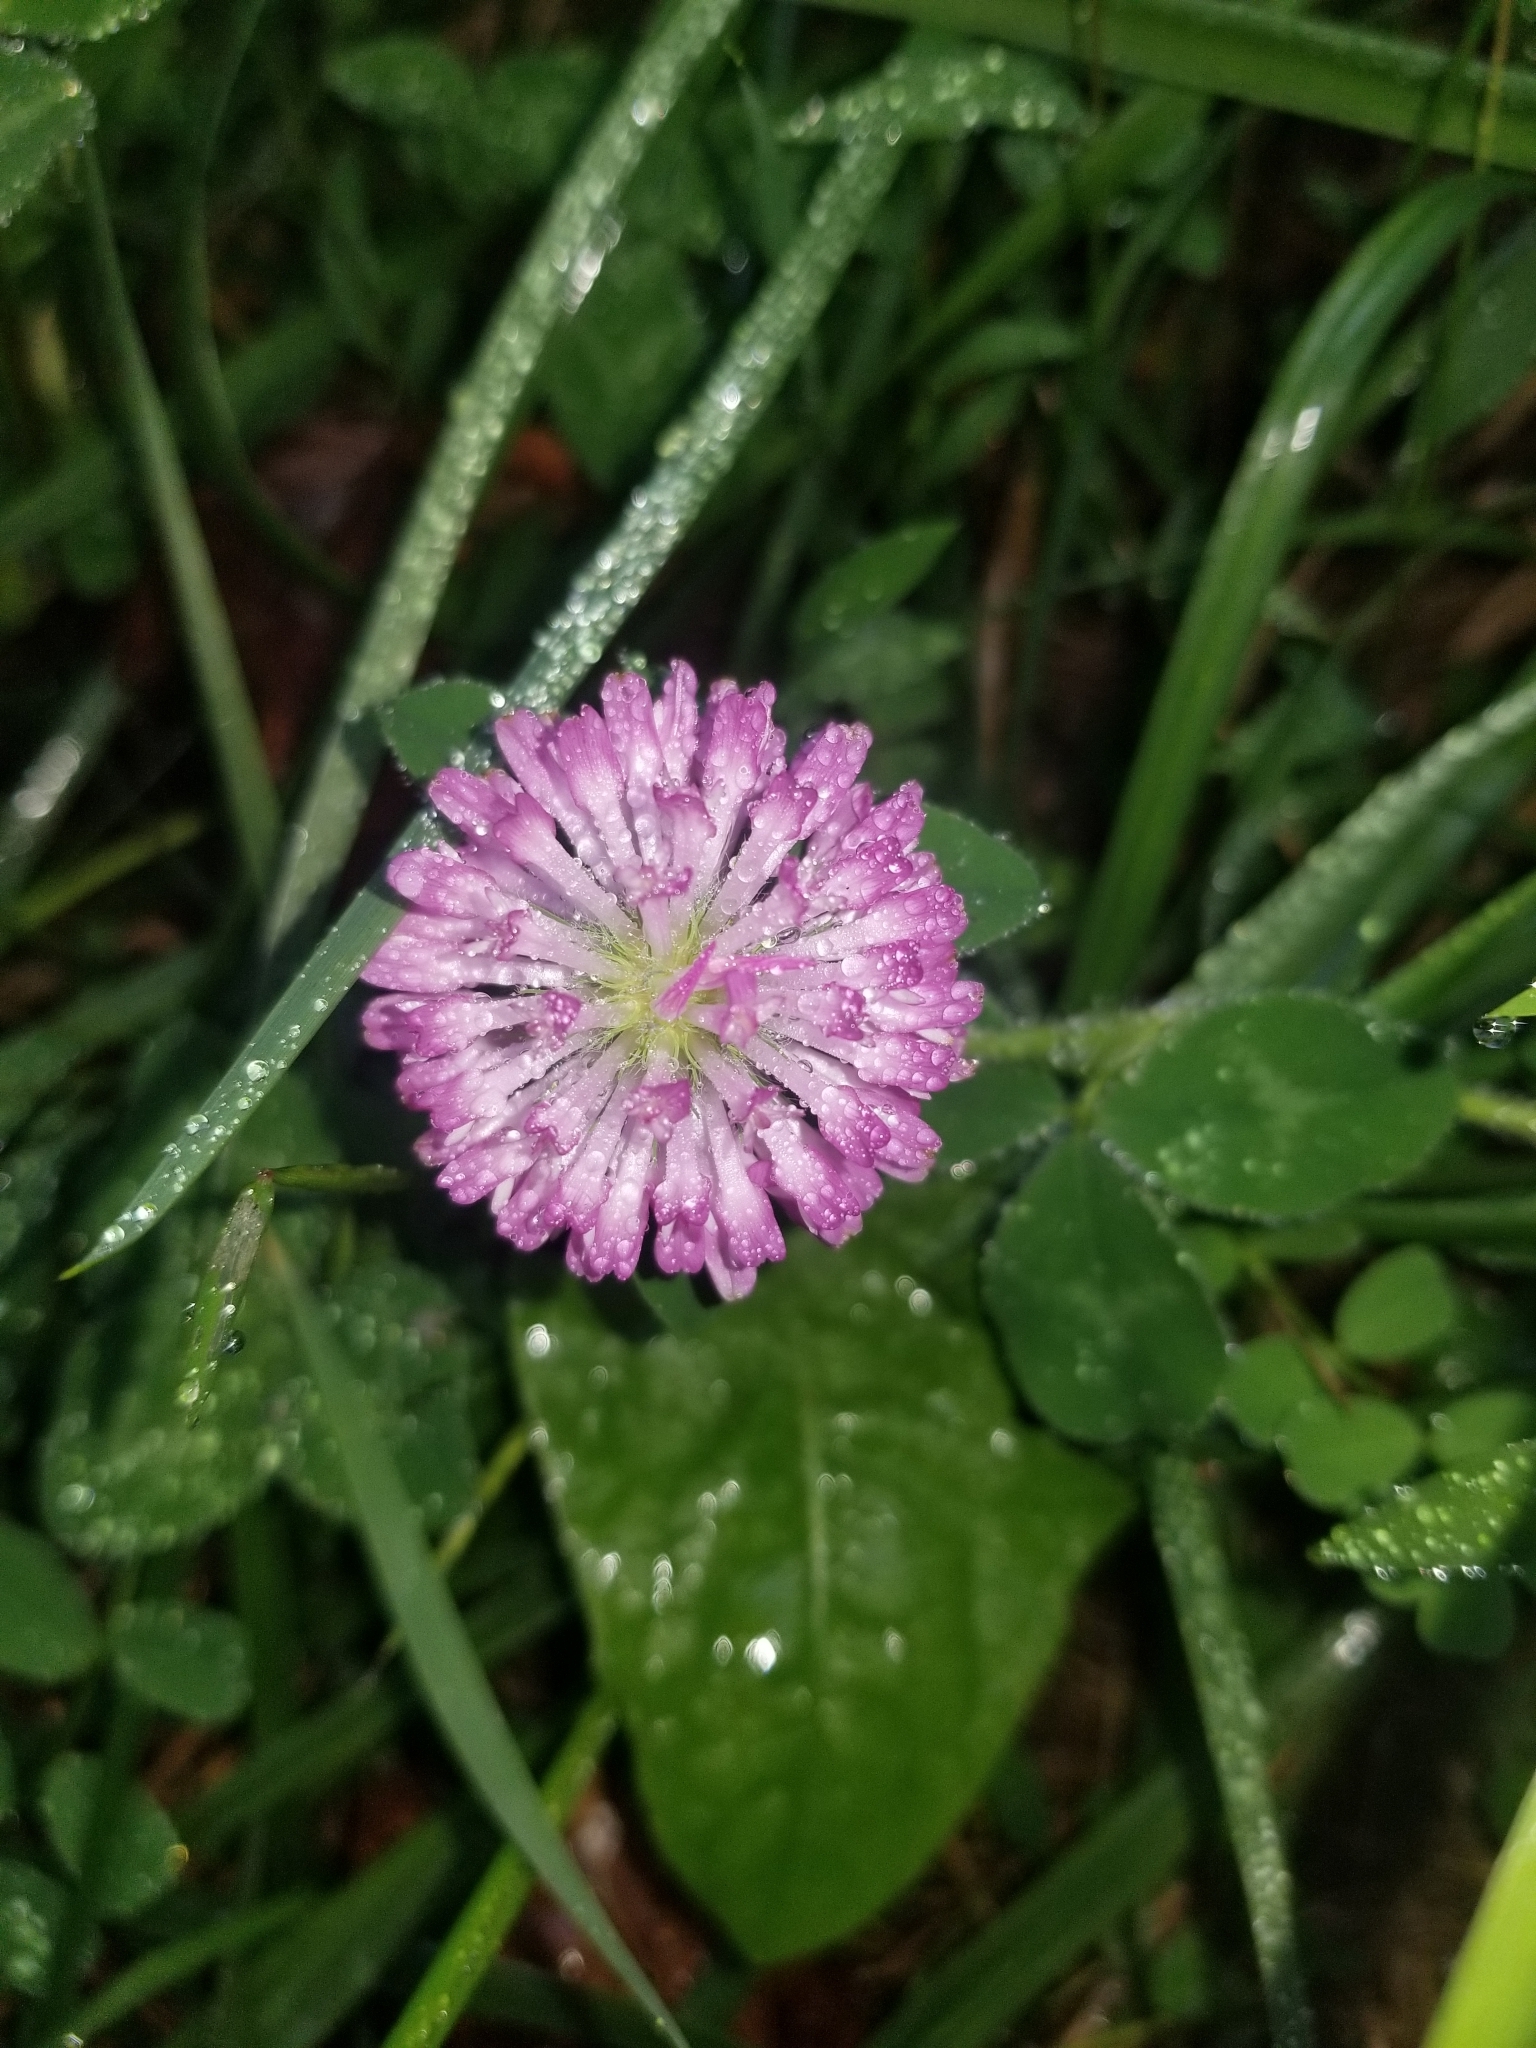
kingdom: Plantae
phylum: Tracheophyta
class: Magnoliopsida
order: Fabales
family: Fabaceae
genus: Trifolium
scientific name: Trifolium pratense
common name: Red clover
